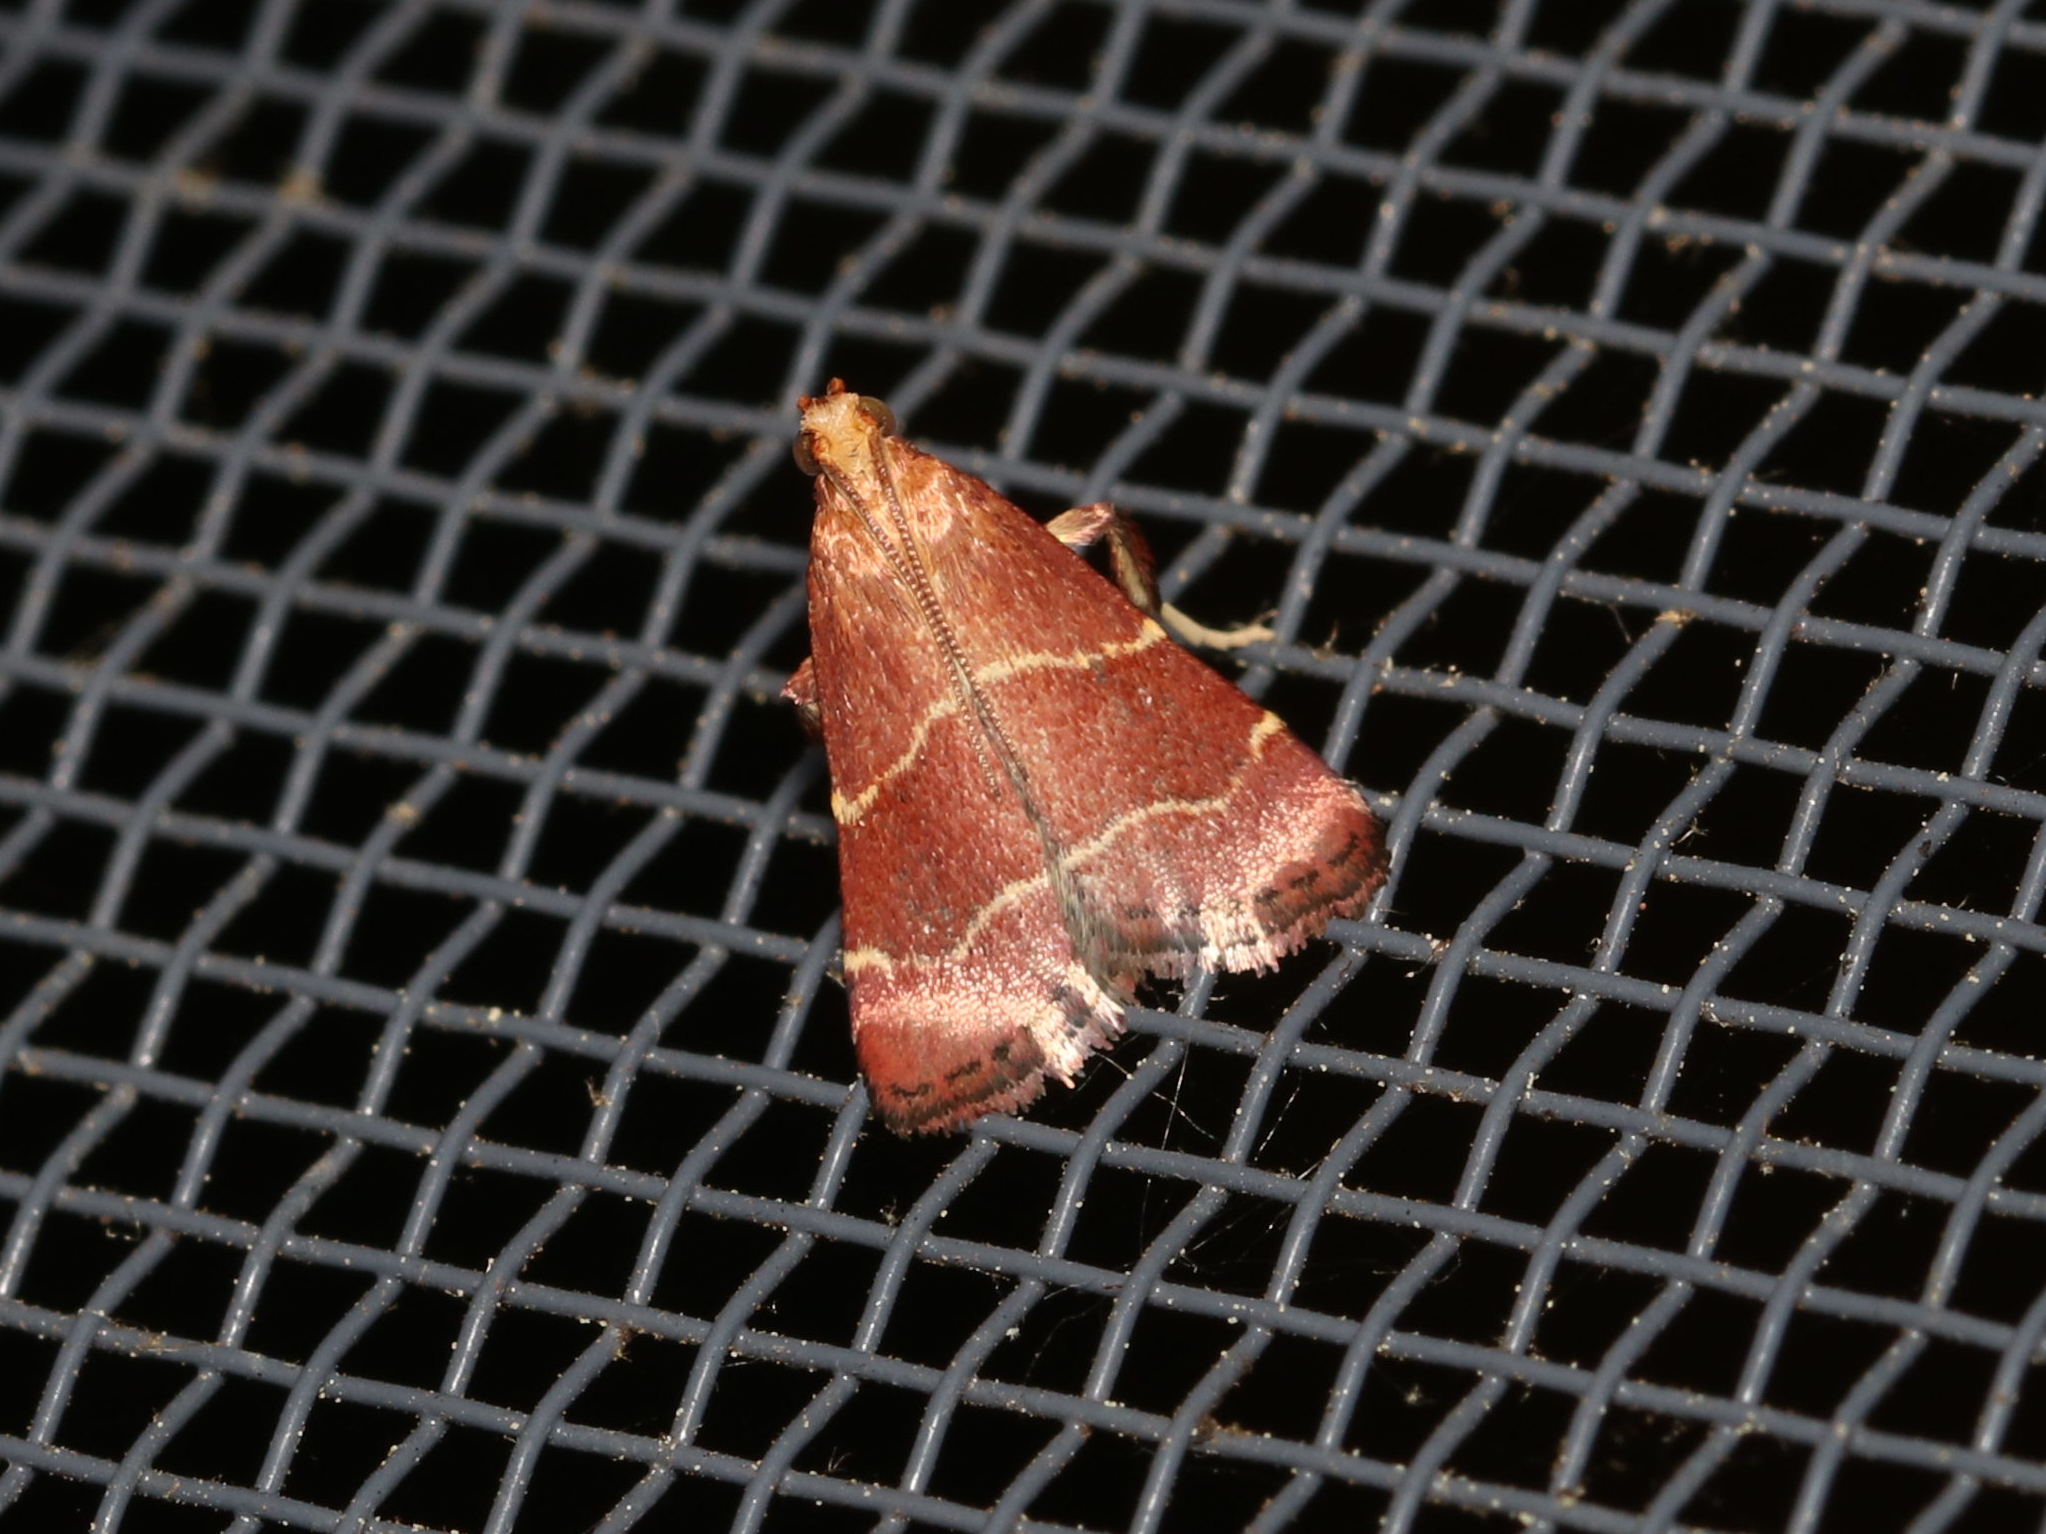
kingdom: Animalia
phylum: Arthropoda
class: Insecta
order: Lepidoptera
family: Pyralidae
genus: Arta
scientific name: Arta statalis
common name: Posturing arta moth
